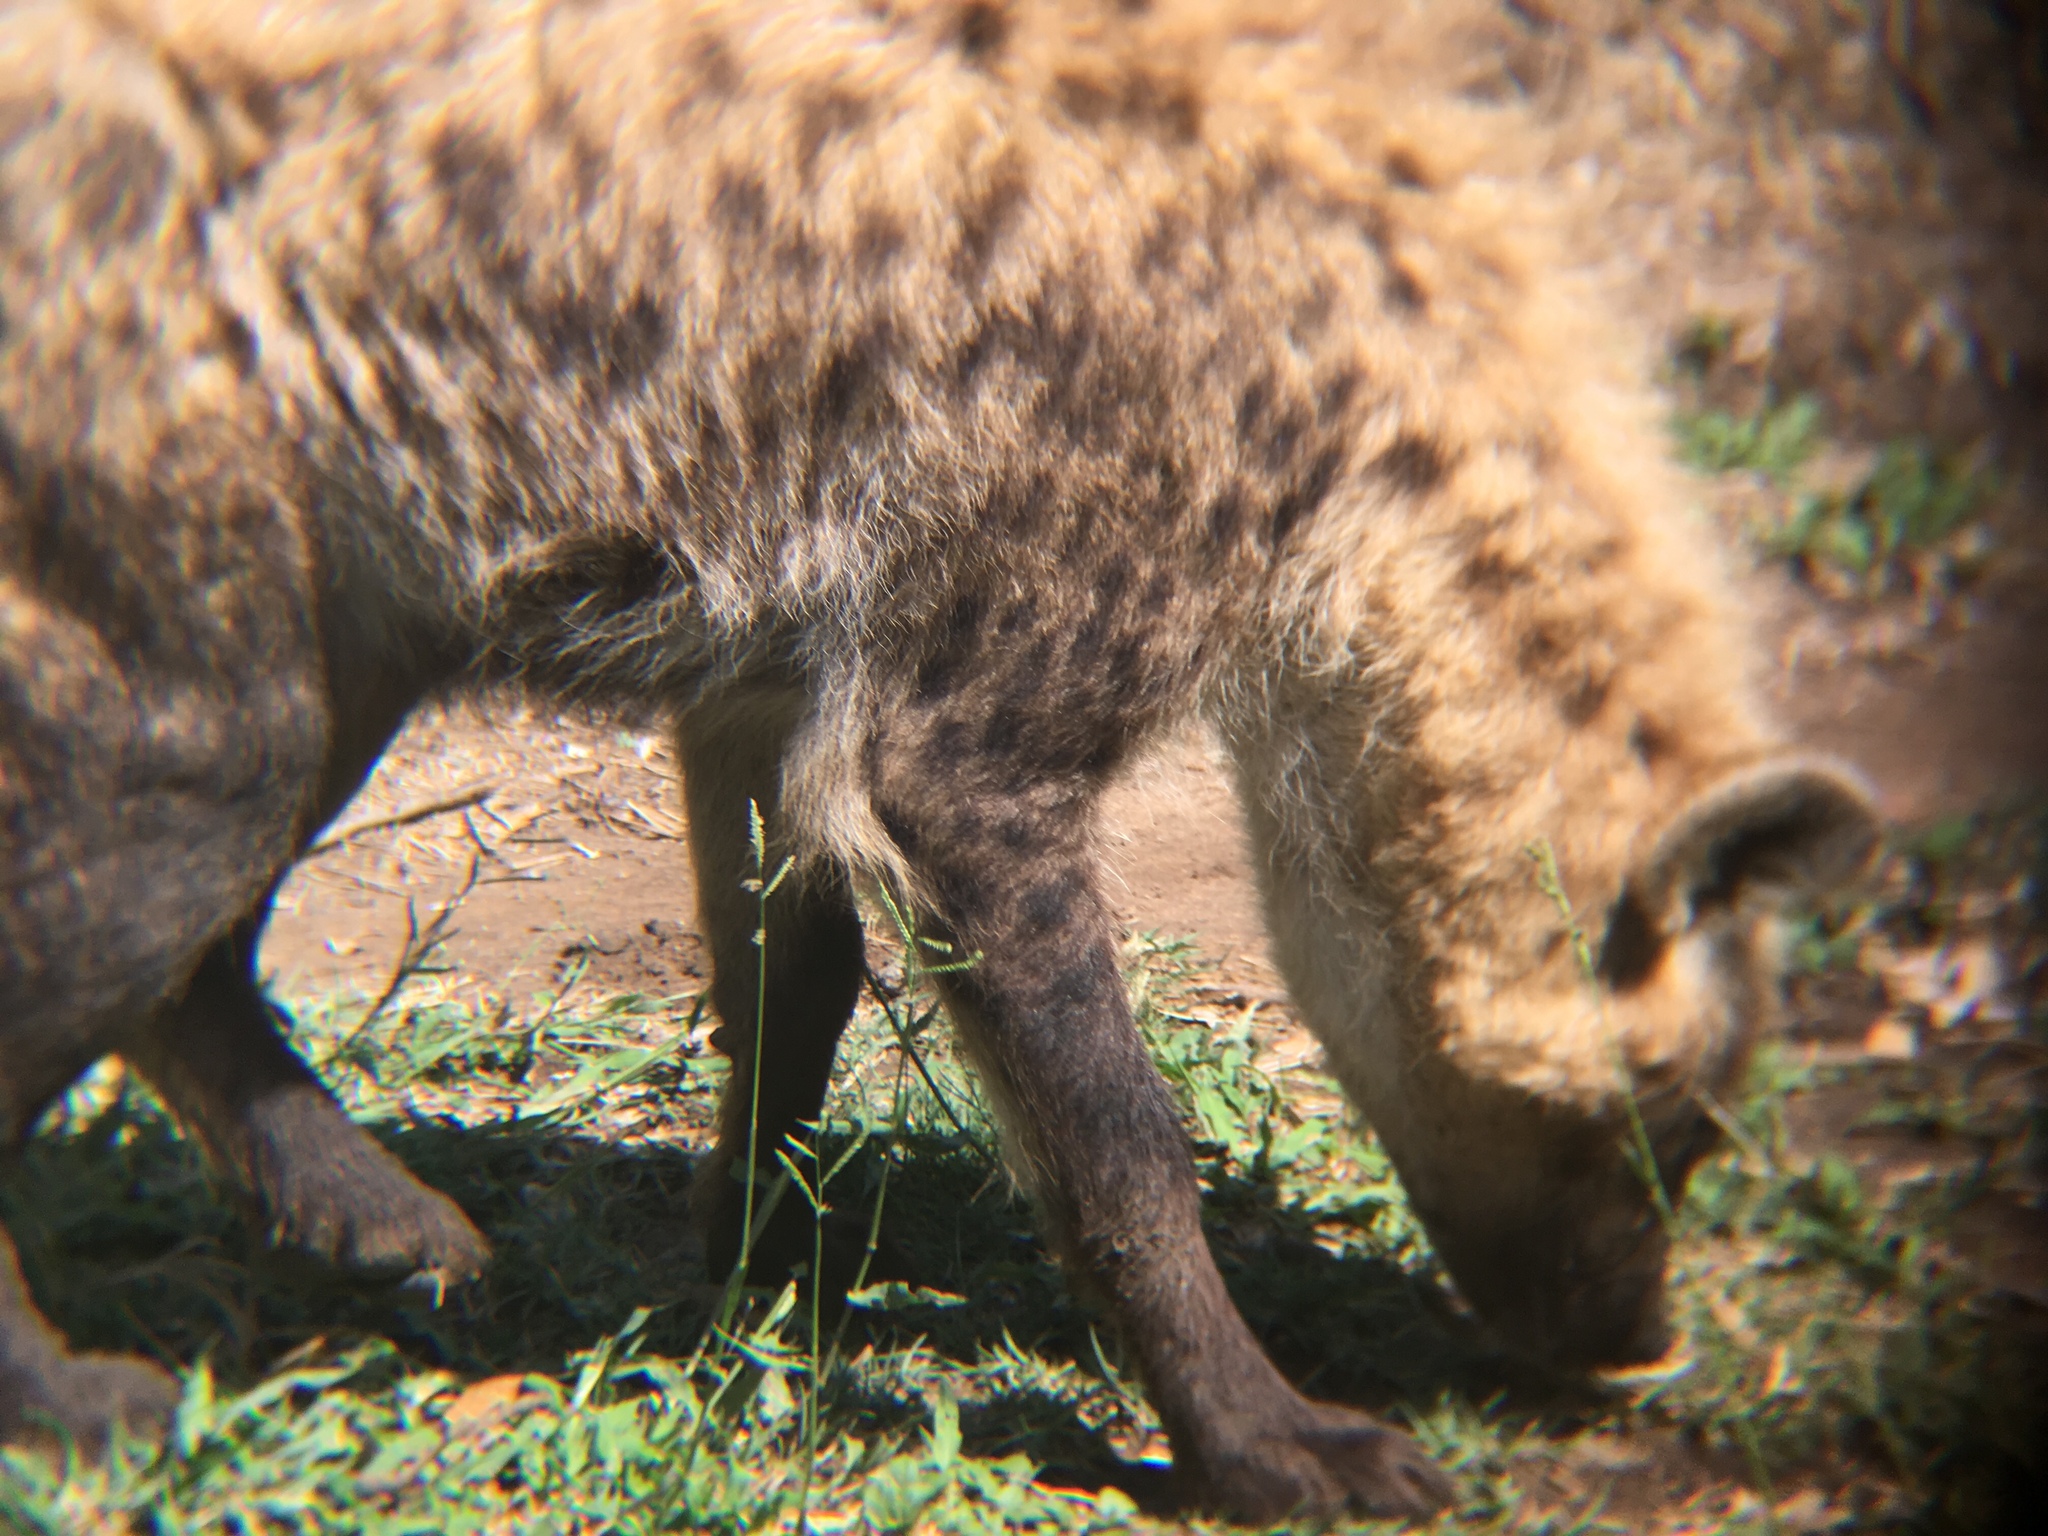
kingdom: Animalia
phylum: Chordata
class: Mammalia
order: Carnivora
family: Hyaenidae
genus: Crocuta
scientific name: Crocuta crocuta
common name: Spotted hyaena
